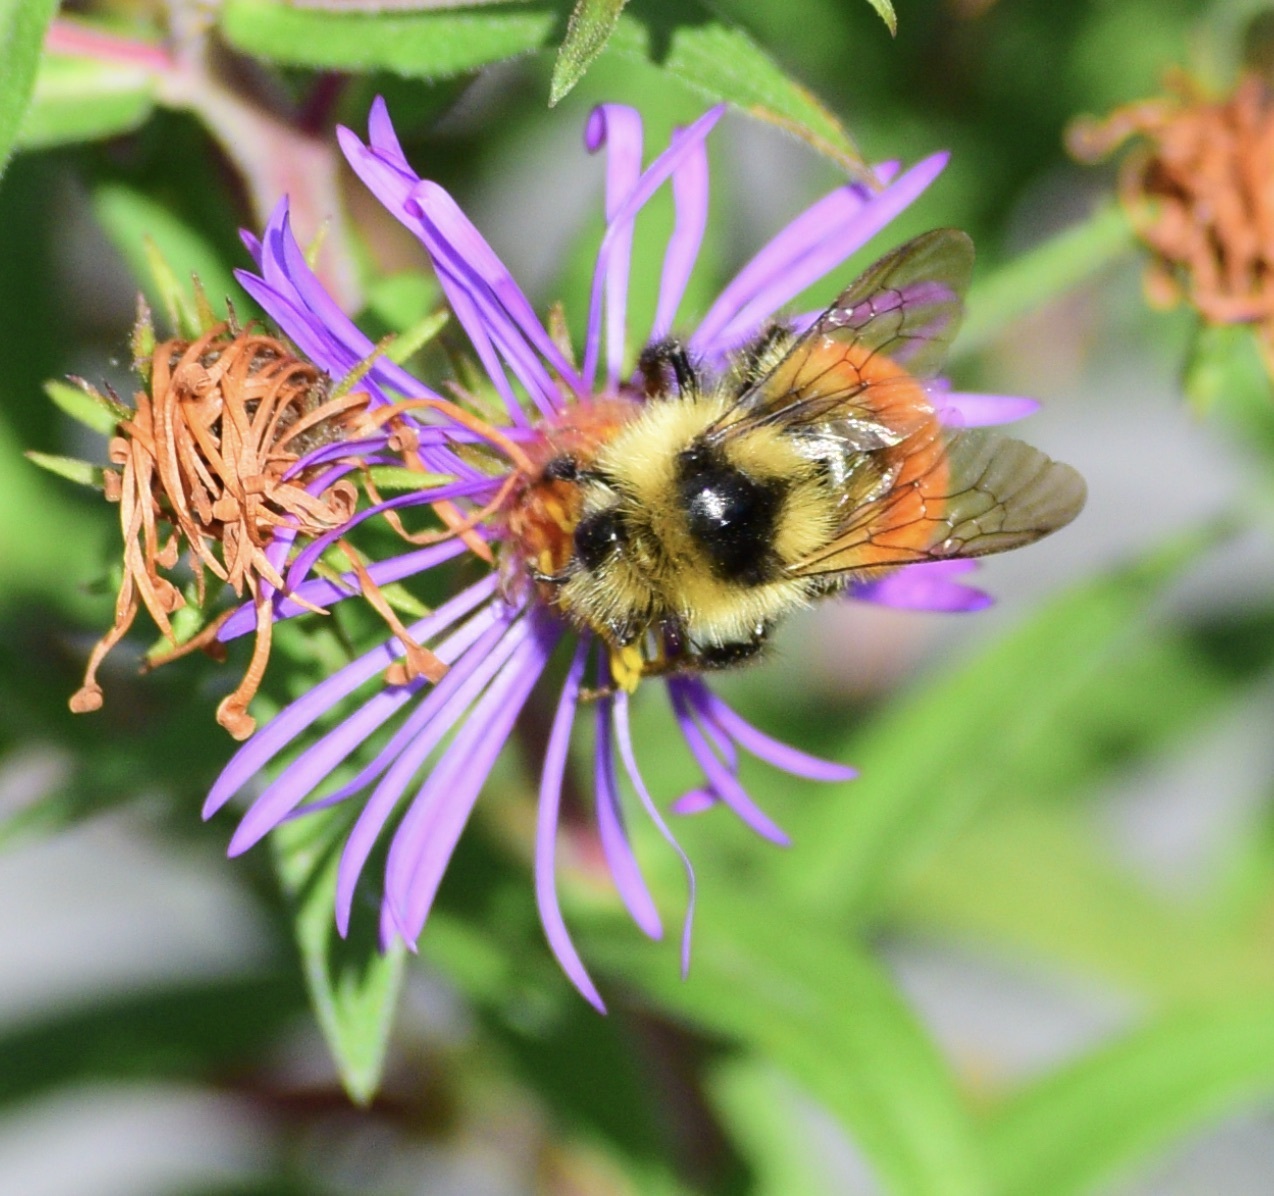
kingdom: Animalia
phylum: Arthropoda
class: Insecta
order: Hymenoptera
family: Apidae
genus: Bombus
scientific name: Bombus ternarius
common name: Tri-colored bumble bee
